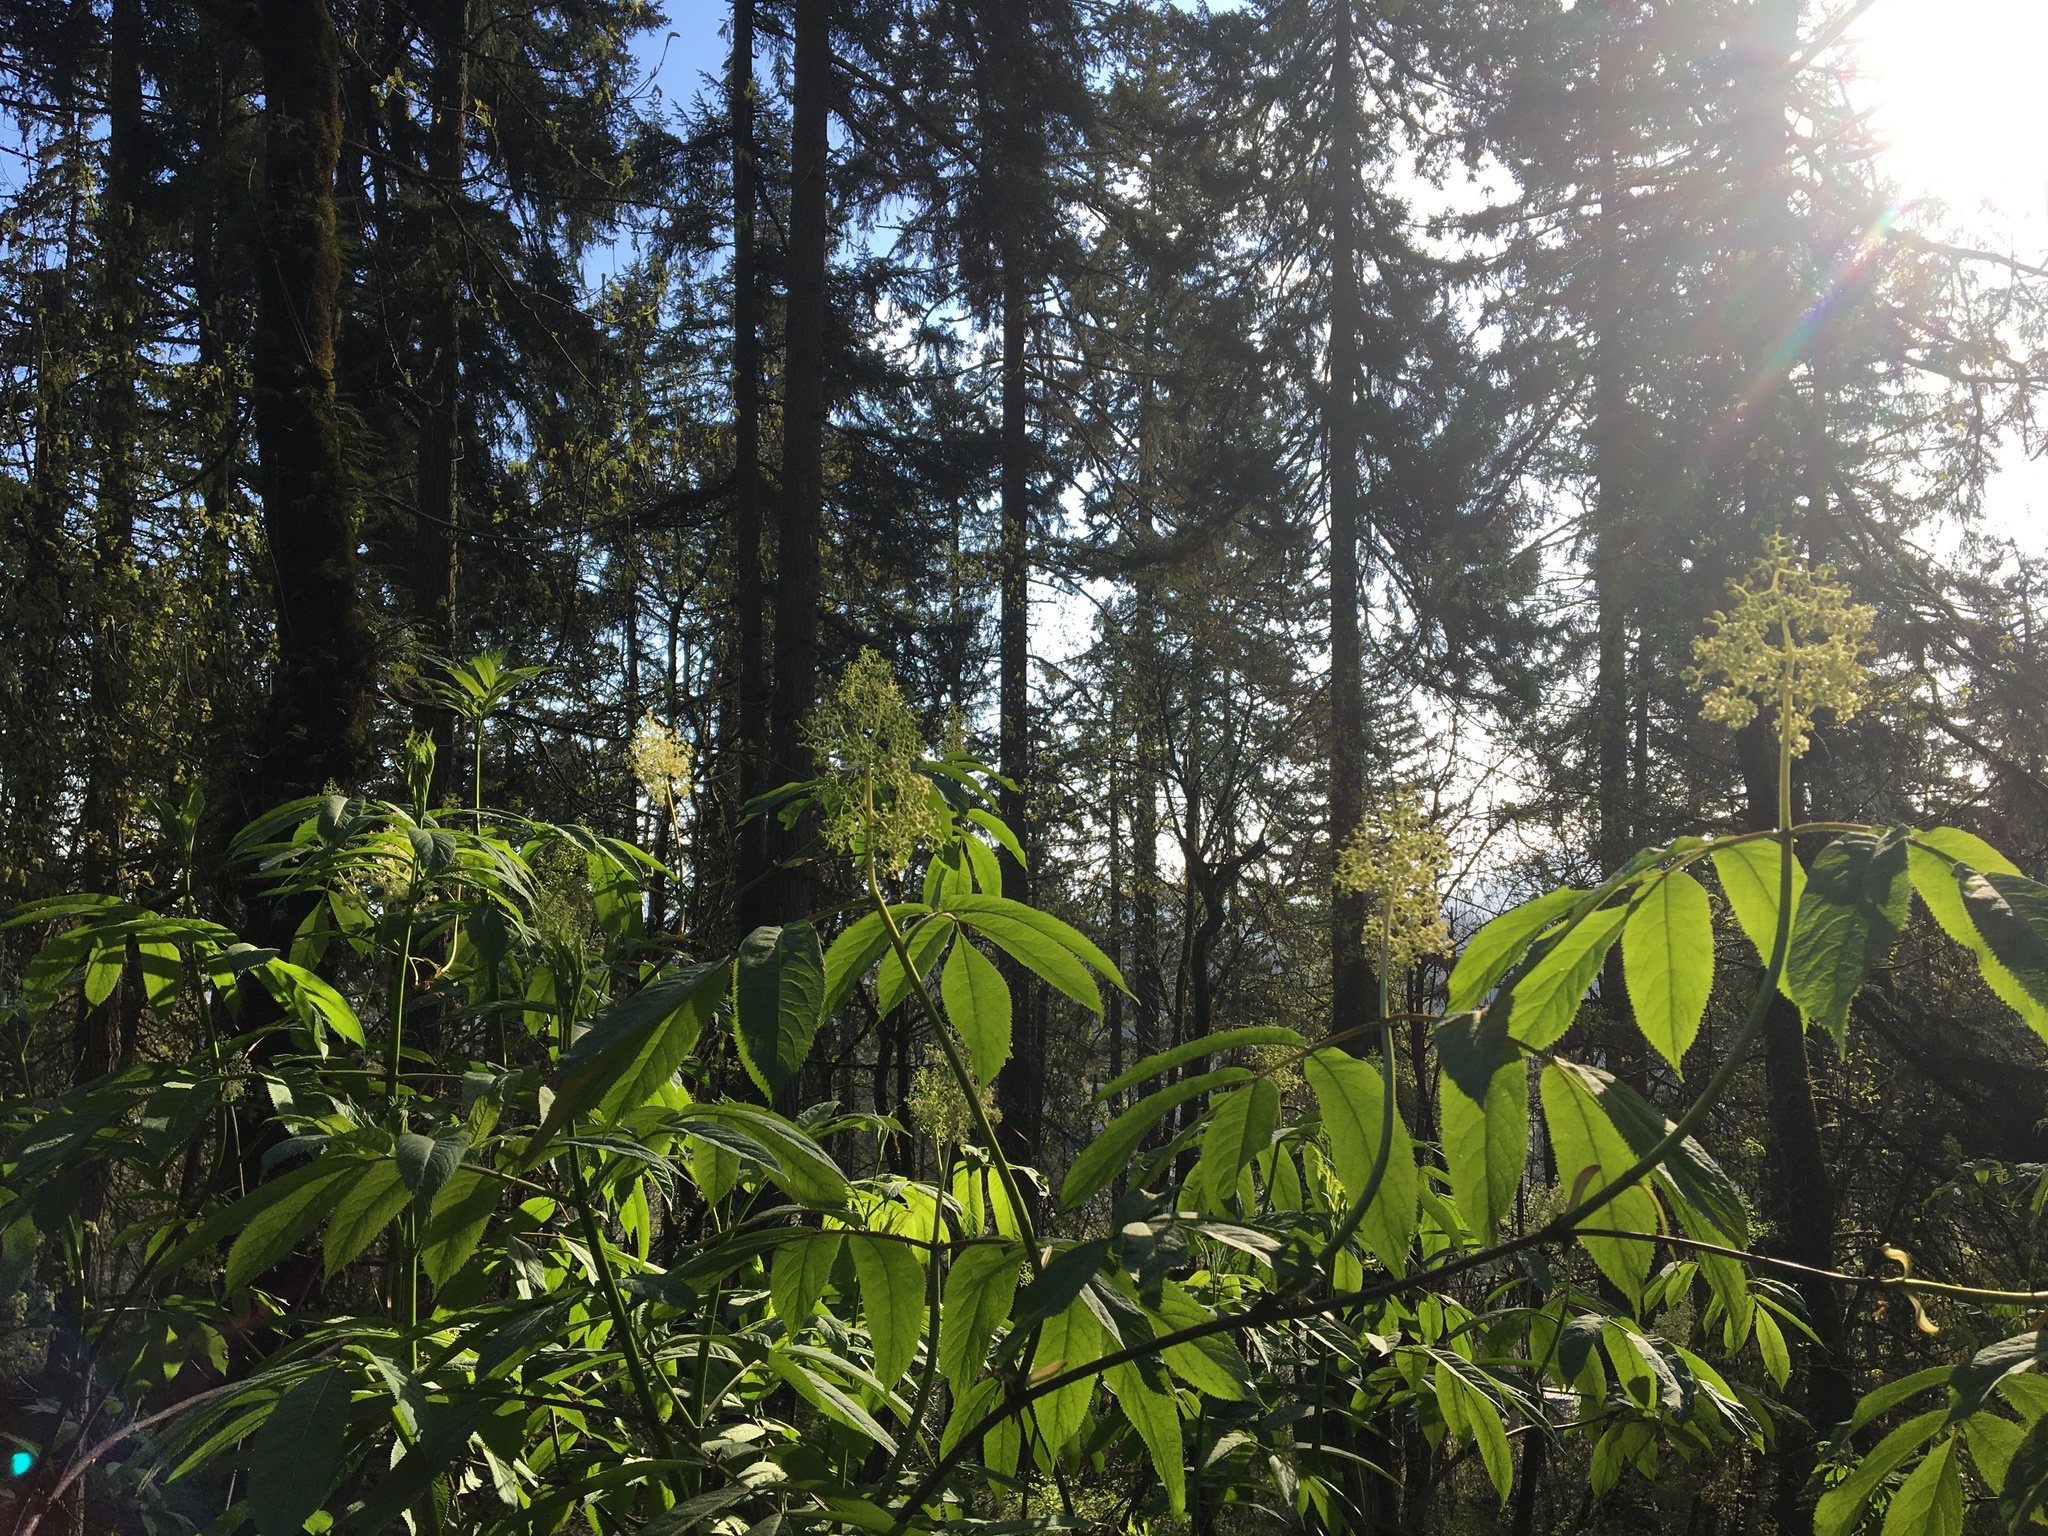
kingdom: Plantae
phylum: Tracheophyta
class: Magnoliopsida
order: Dipsacales
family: Viburnaceae
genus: Sambucus
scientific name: Sambucus racemosa
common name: Red-berried elder
